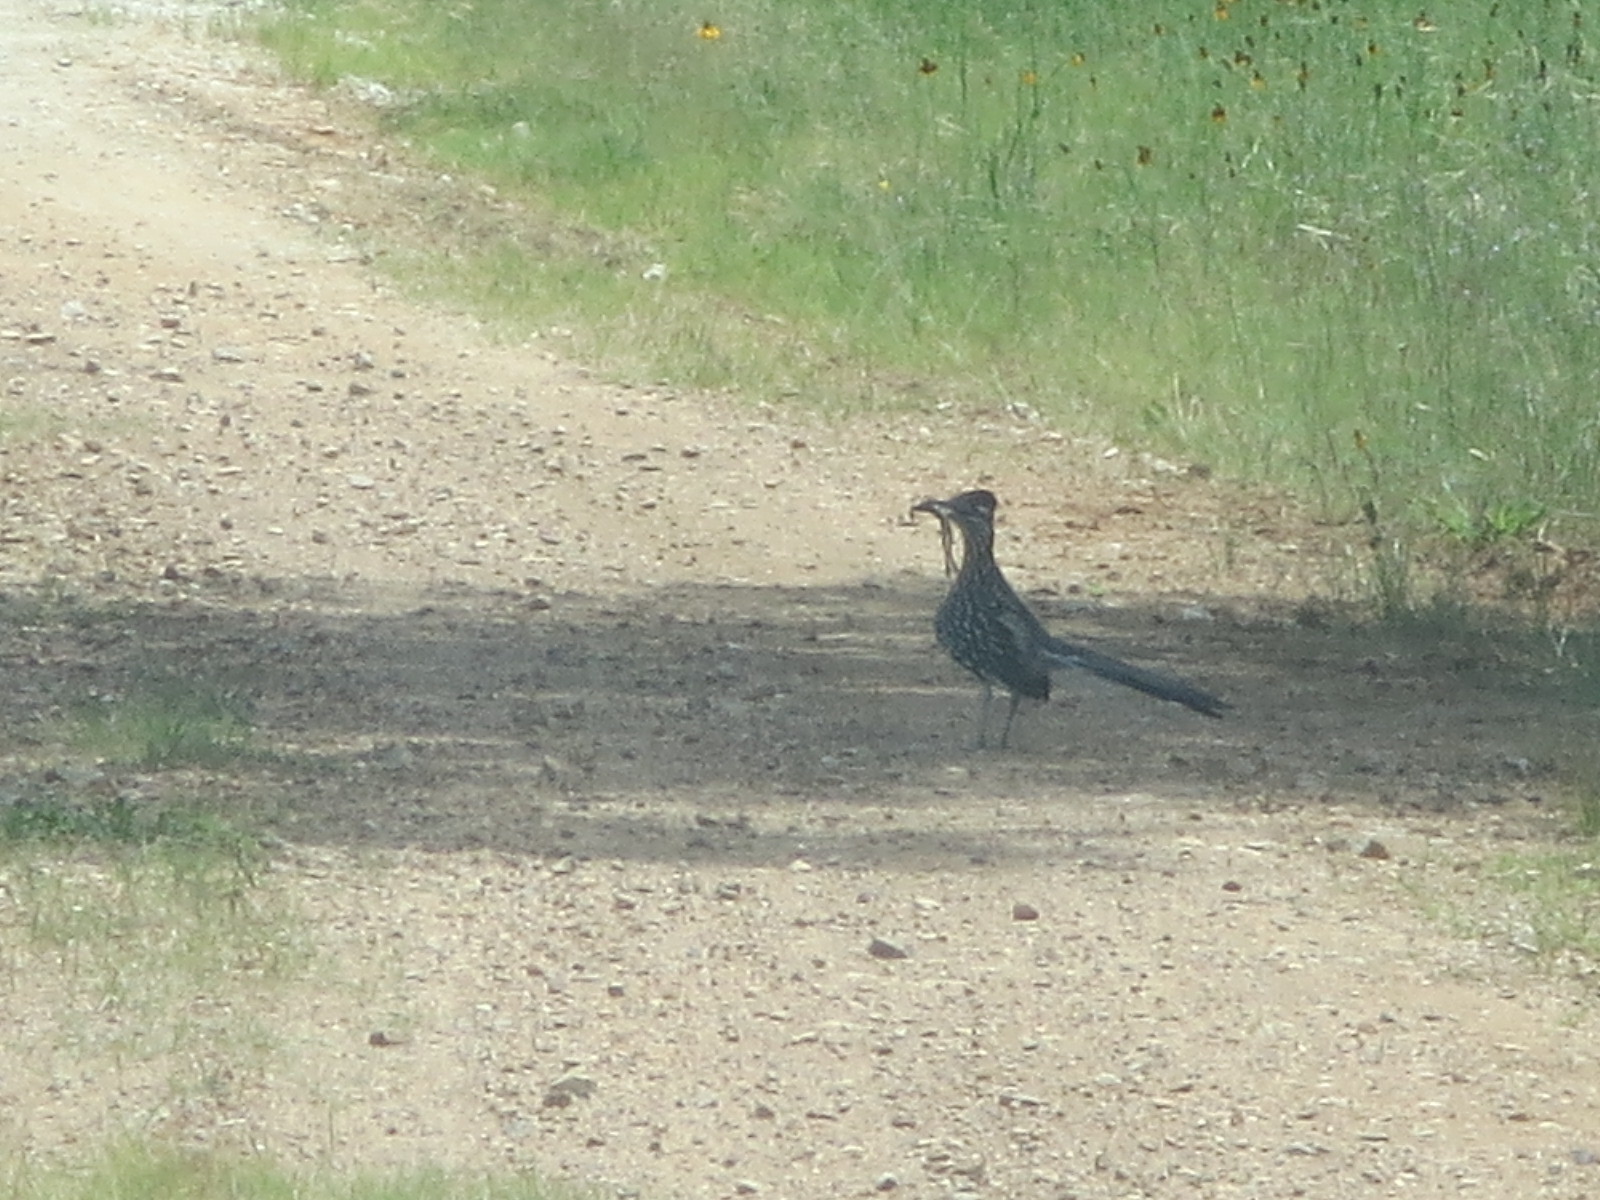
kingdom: Animalia
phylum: Chordata
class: Aves
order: Cuculiformes
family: Cuculidae
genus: Geococcyx
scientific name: Geococcyx californianus
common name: Greater roadrunner
